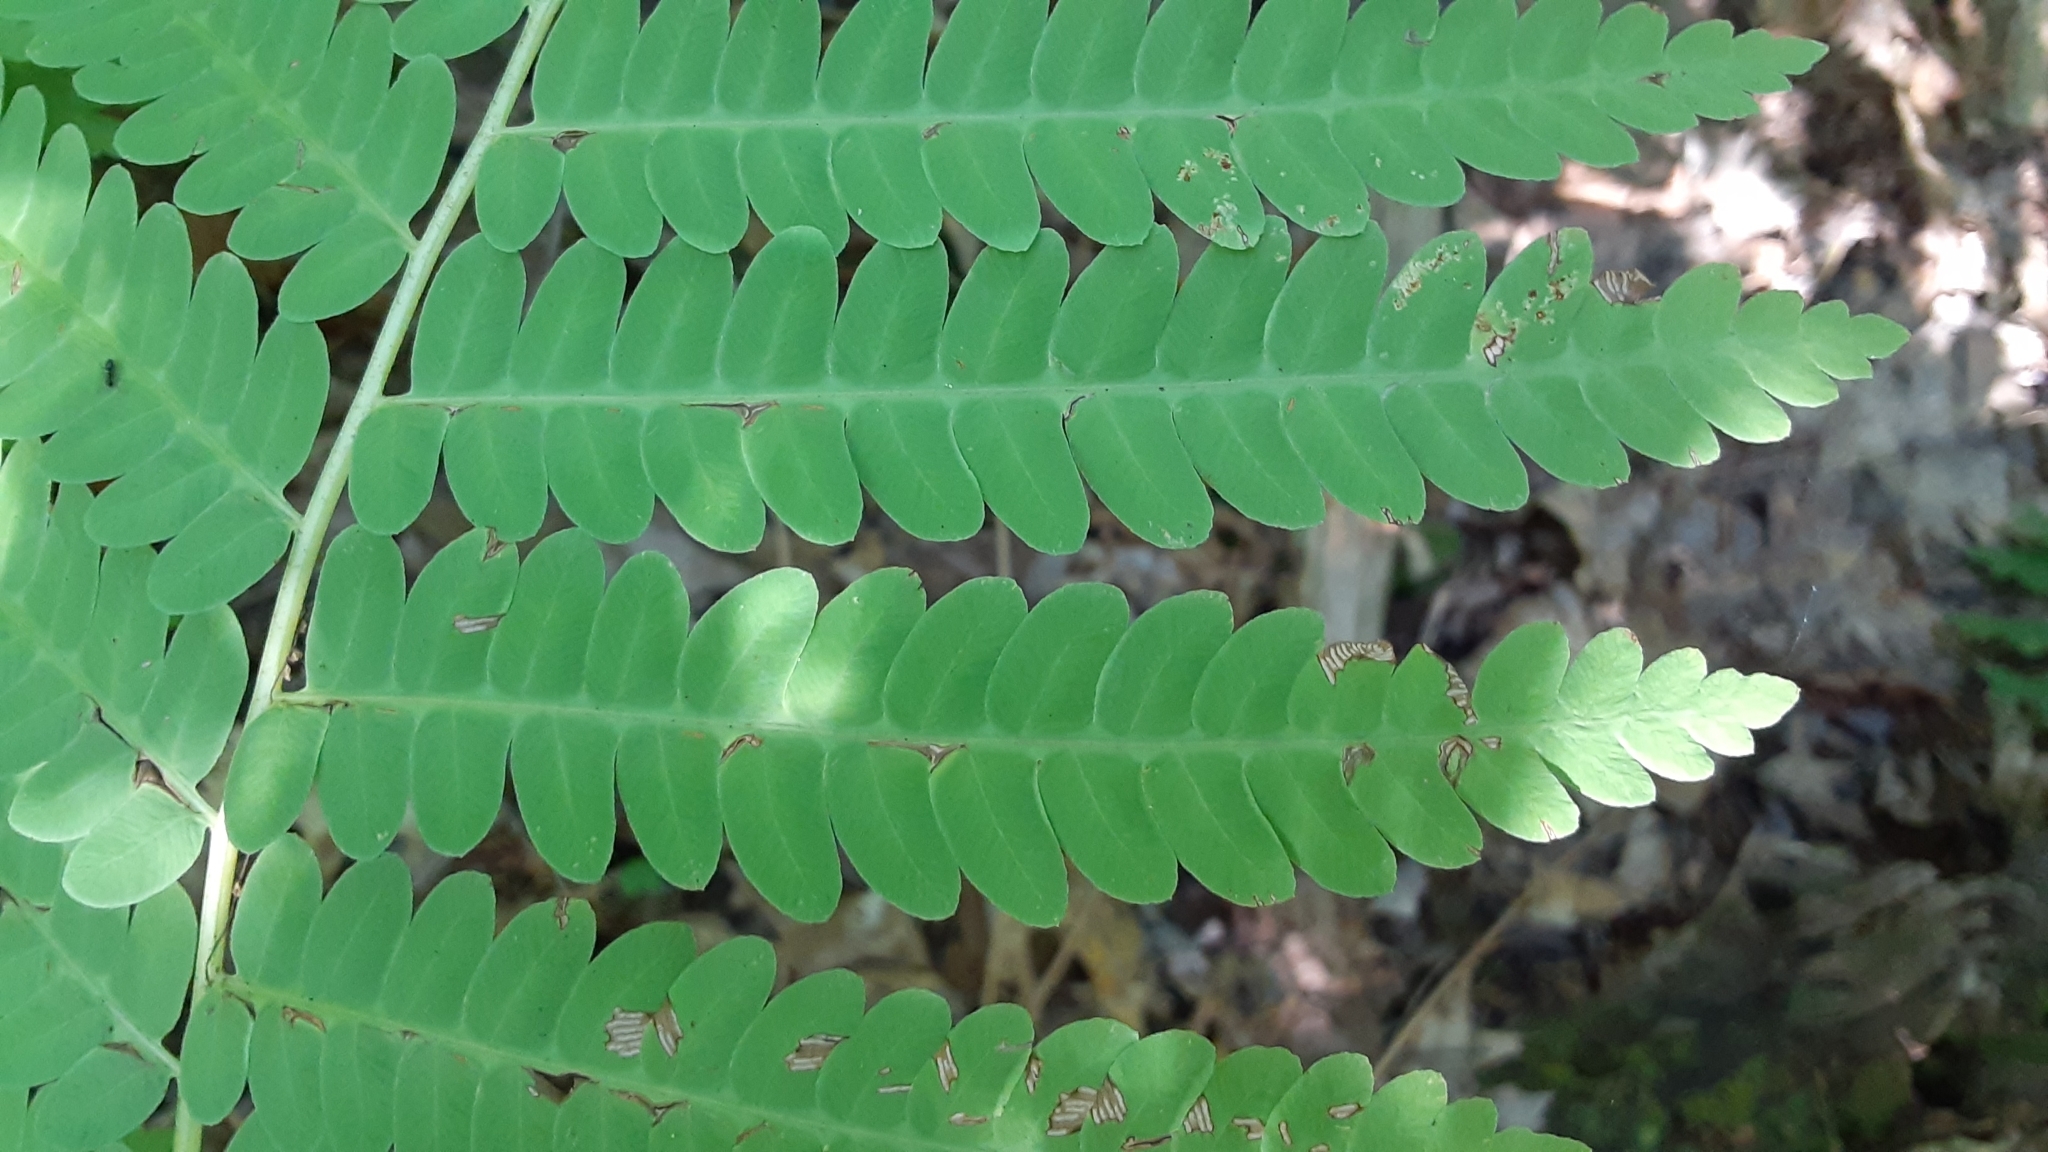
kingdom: Plantae
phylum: Tracheophyta
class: Polypodiopsida
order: Osmundales
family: Osmundaceae
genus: Claytosmunda
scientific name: Claytosmunda claytoniana
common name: Clayton's fern
